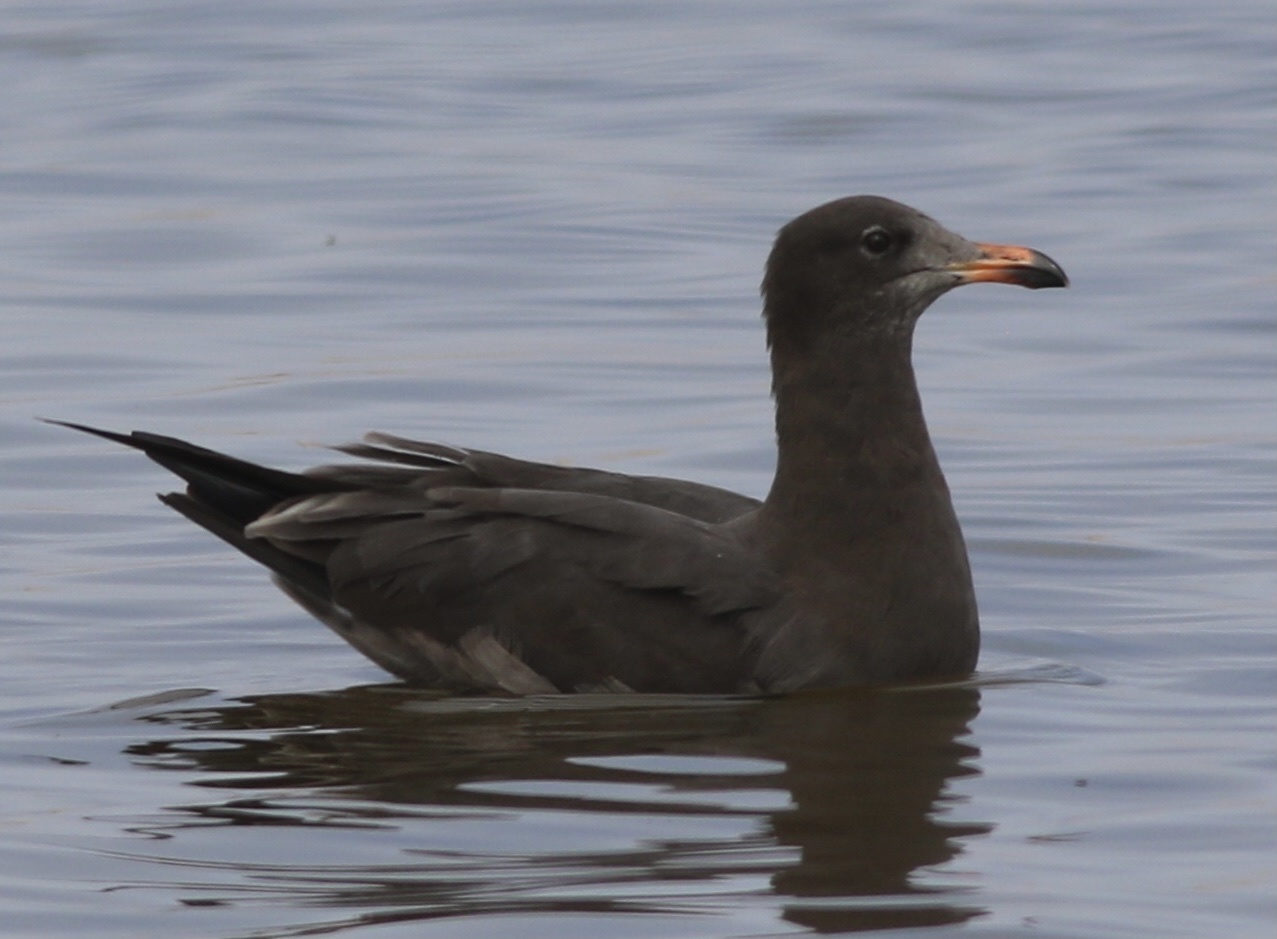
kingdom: Animalia
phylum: Chordata
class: Aves
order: Charadriiformes
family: Laridae
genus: Larus
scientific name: Larus heermanni
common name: Heermann's gull
